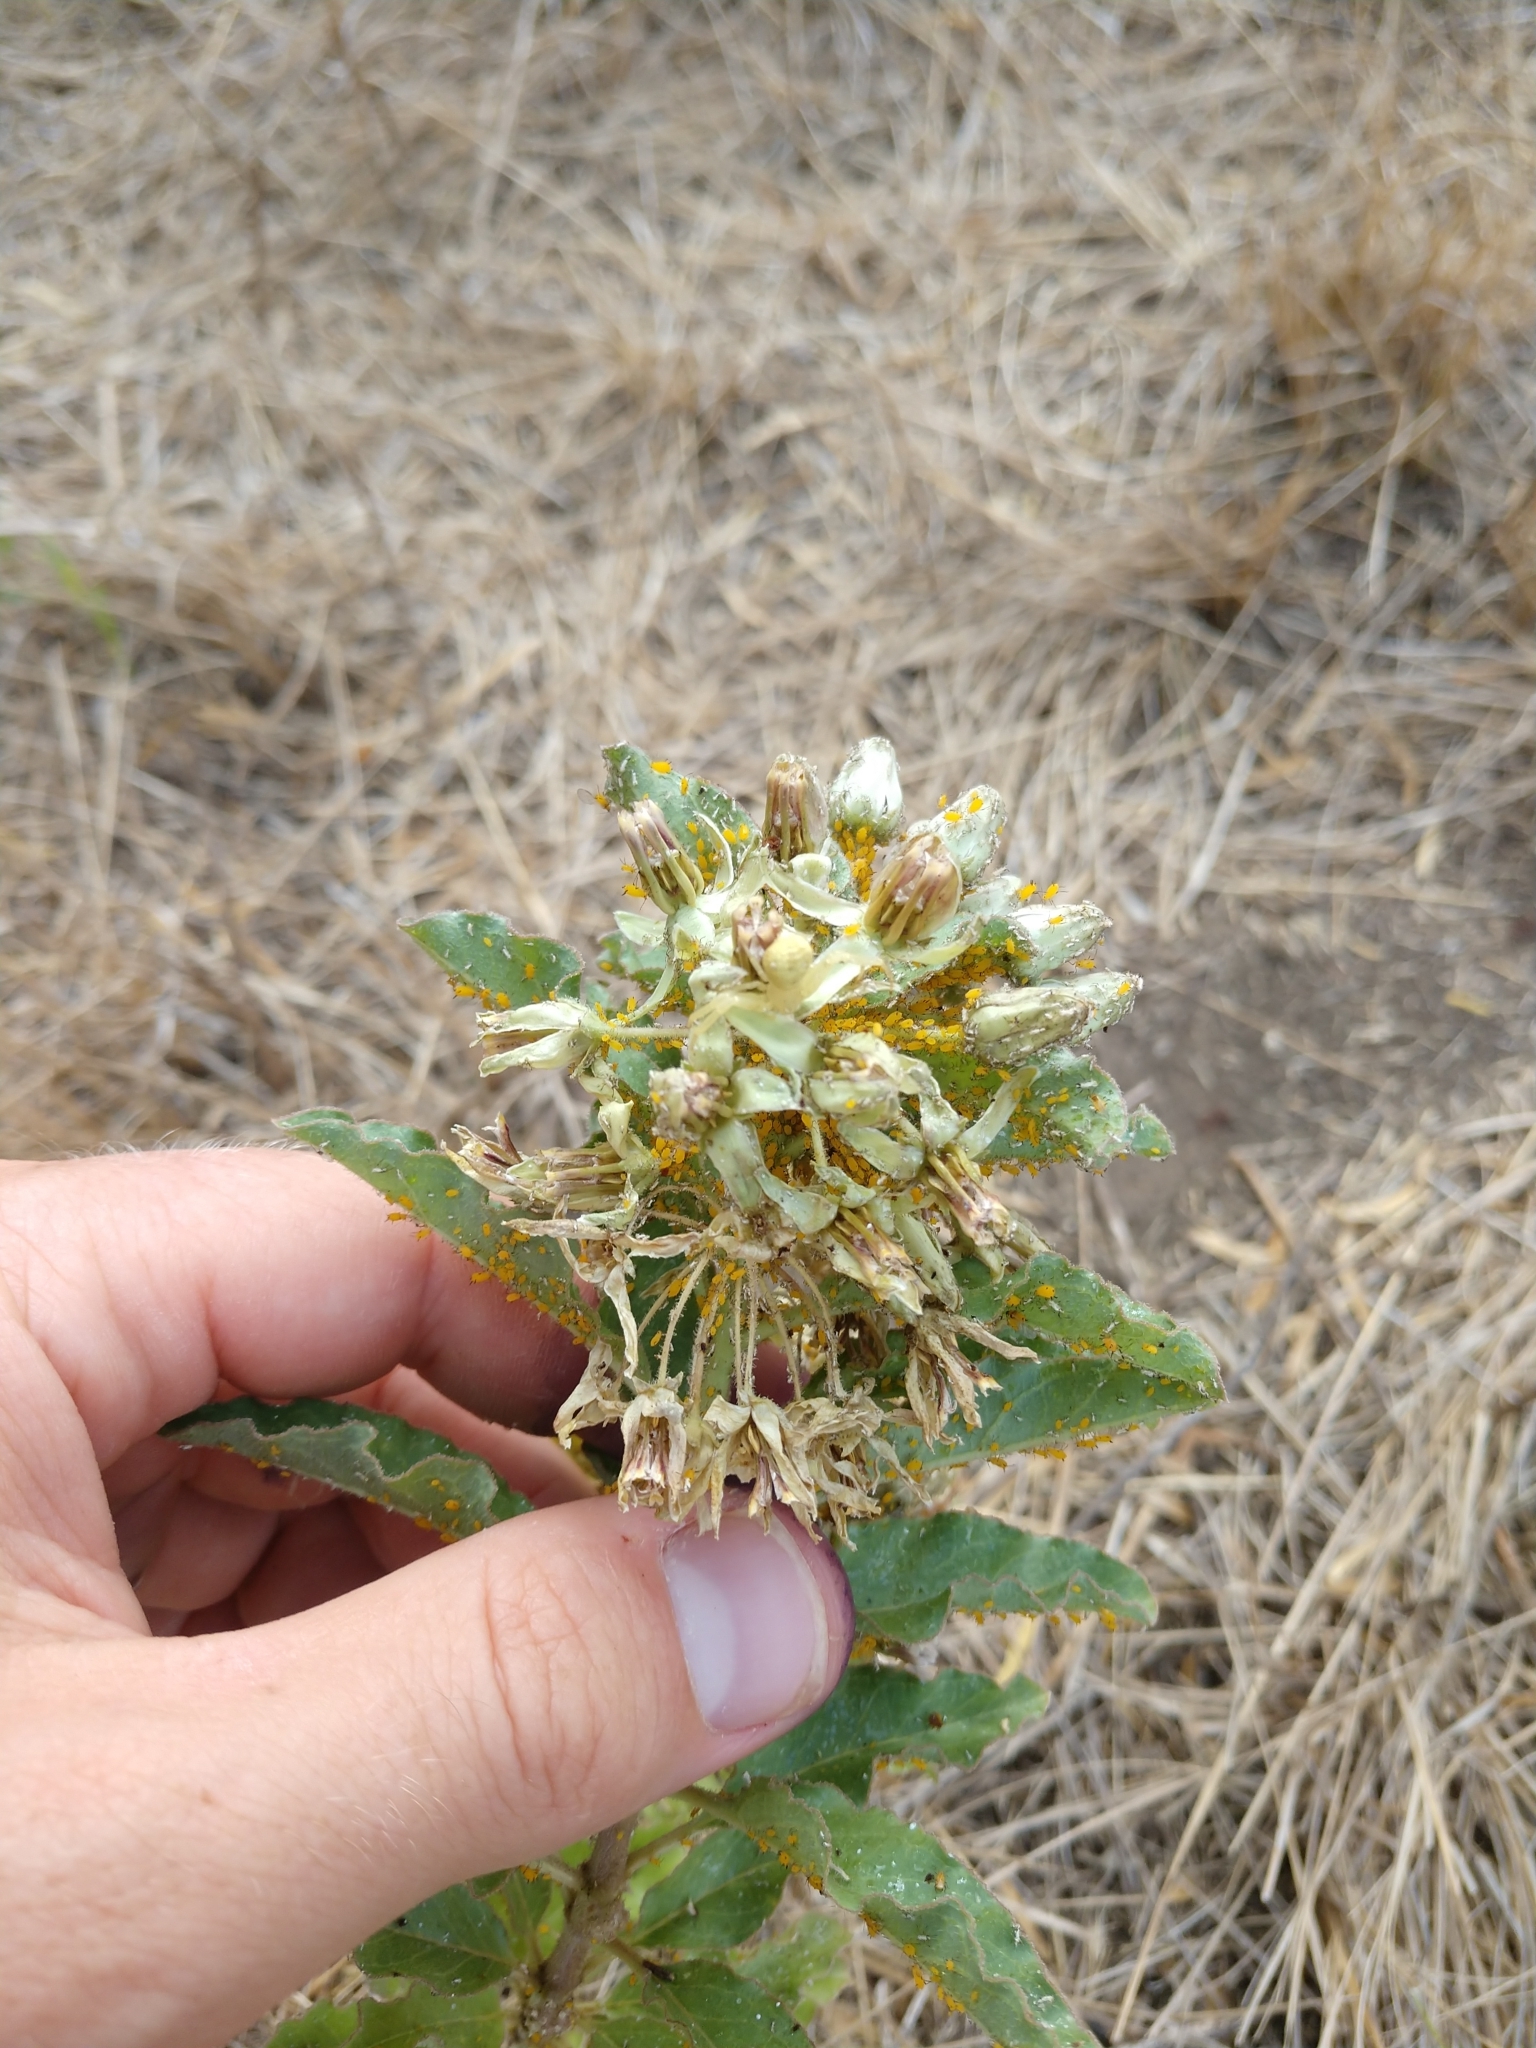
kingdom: Plantae
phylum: Tracheophyta
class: Magnoliopsida
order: Gentianales
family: Apocynaceae
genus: Asclepias
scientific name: Asclepias oenotheroides
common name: Zizotes milkweed
